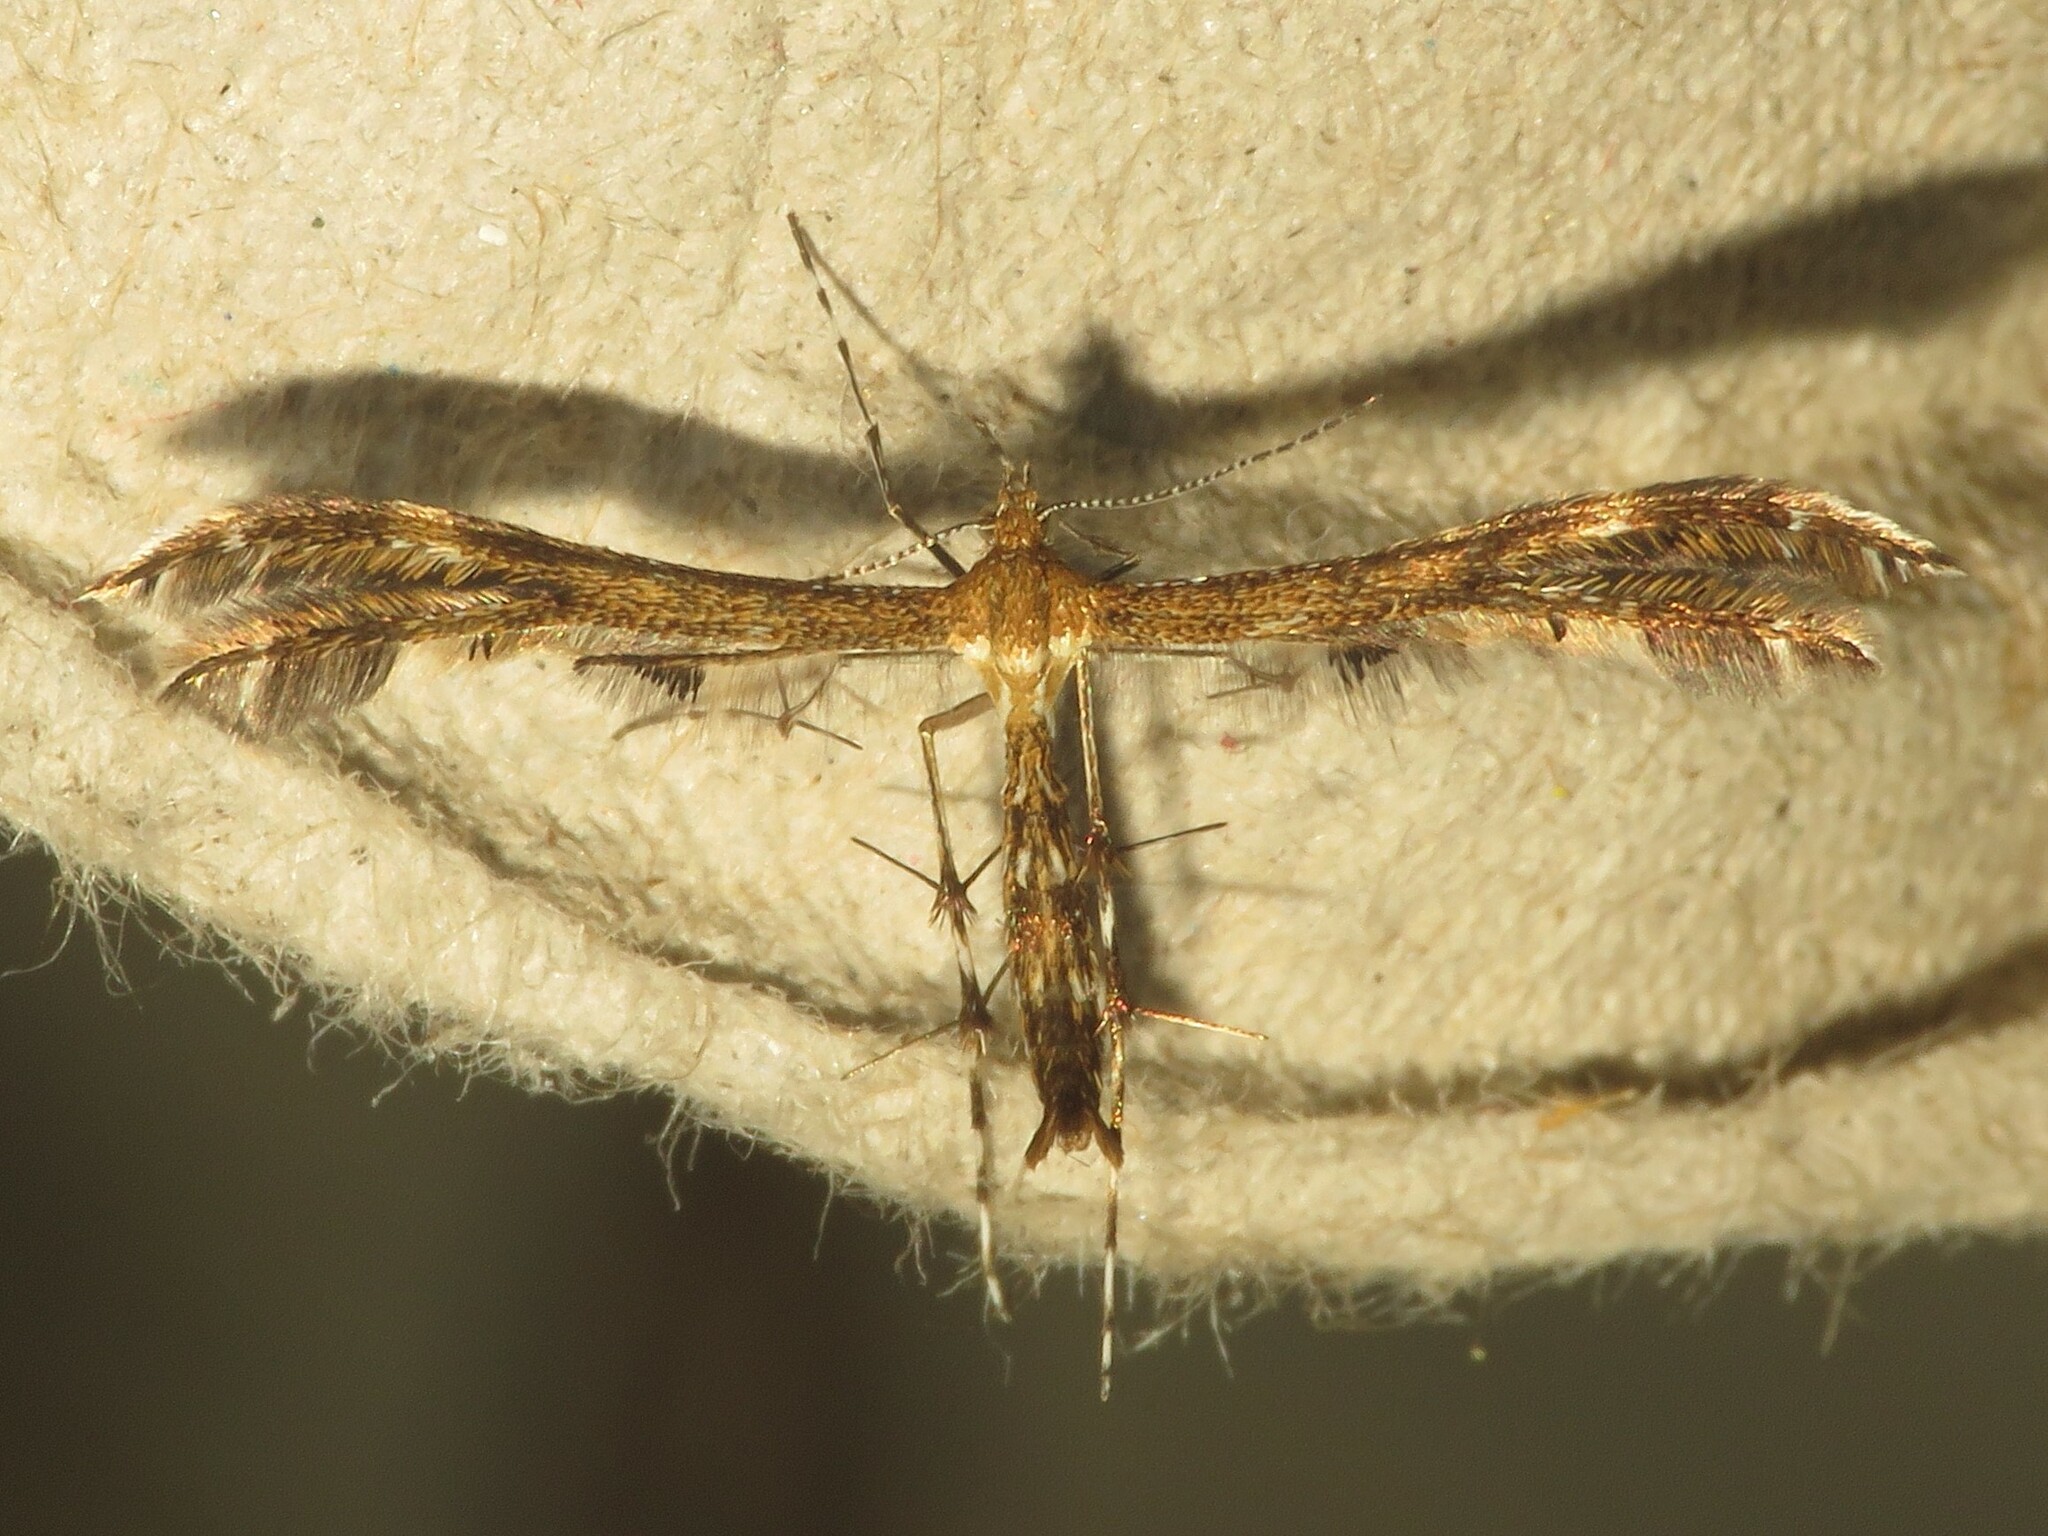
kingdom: Animalia
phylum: Arthropoda
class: Insecta
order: Lepidoptera
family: Pterophoridae
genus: Dejongia
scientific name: Dejongia lobidactylus
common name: Lobed plume moth
